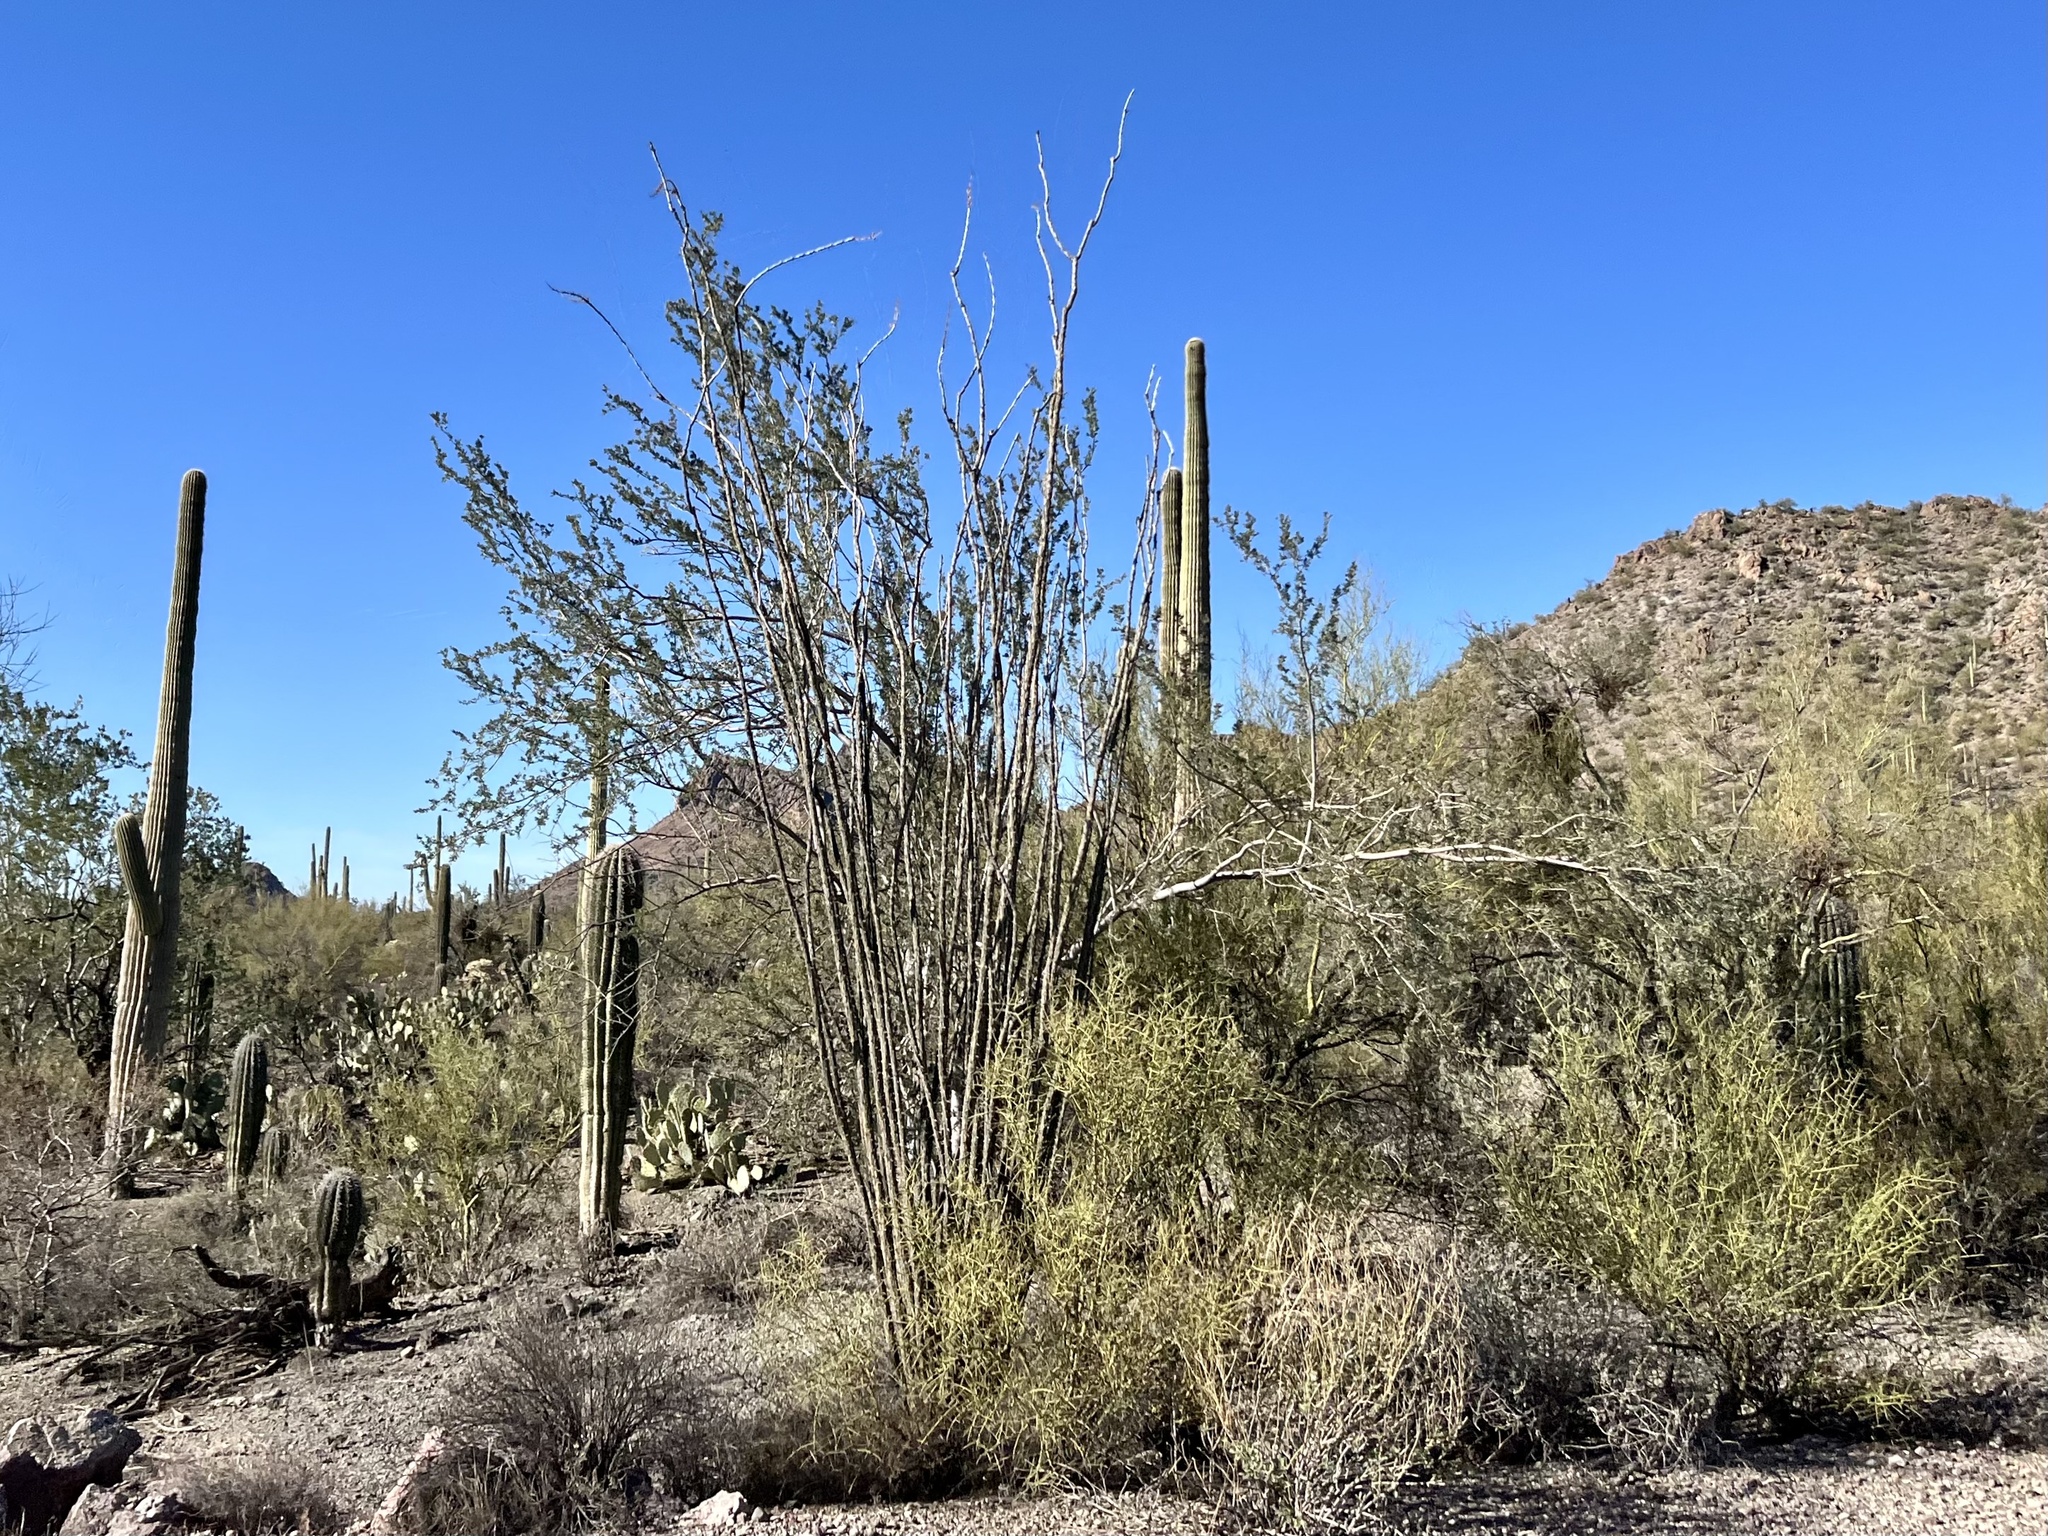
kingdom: Plantae
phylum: Tracheophyta
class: Magnoliopsida
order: Ericales
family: Fouquieriaceae
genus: Fouquieria
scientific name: Fouquieria splendens
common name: Vine-cactus
